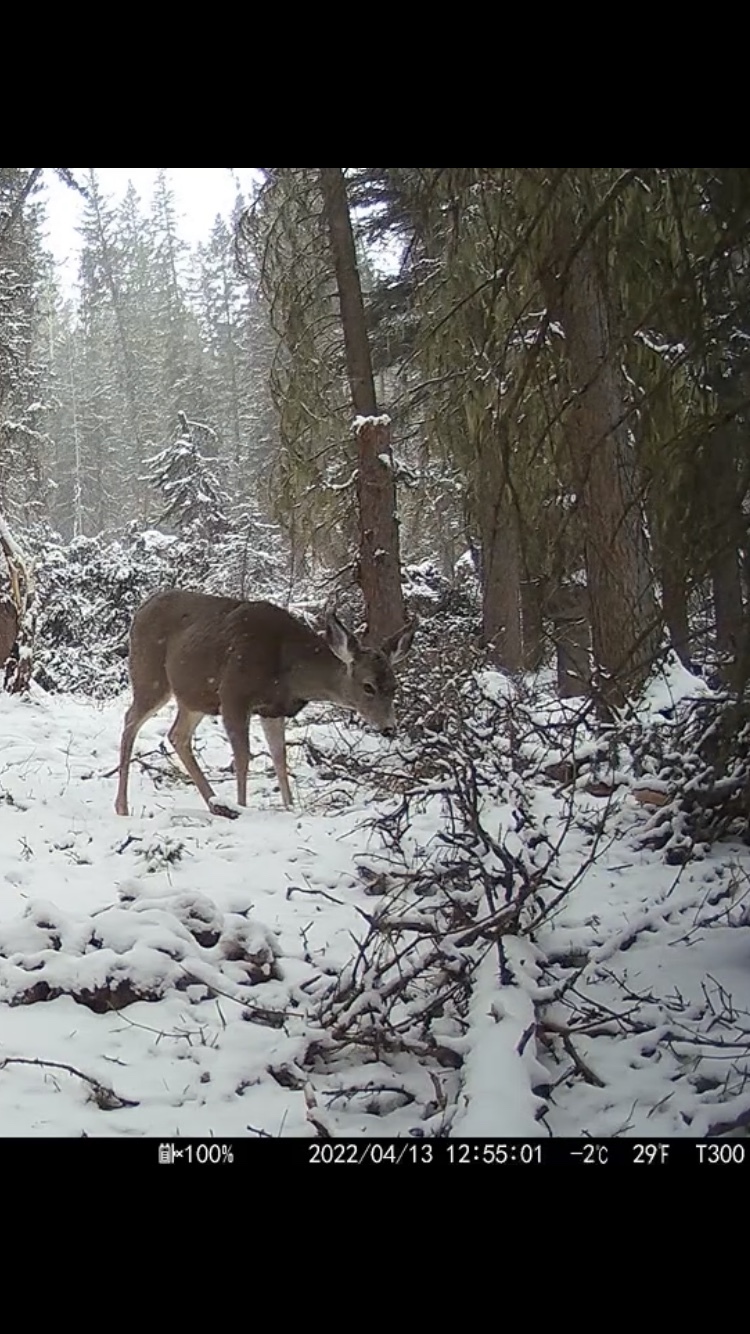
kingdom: Animalia
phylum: Chordata
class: Mammalia
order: Artiodactyla
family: Cervidae
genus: Odocoileus
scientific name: Odocoileus hemionus
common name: Mule deer
